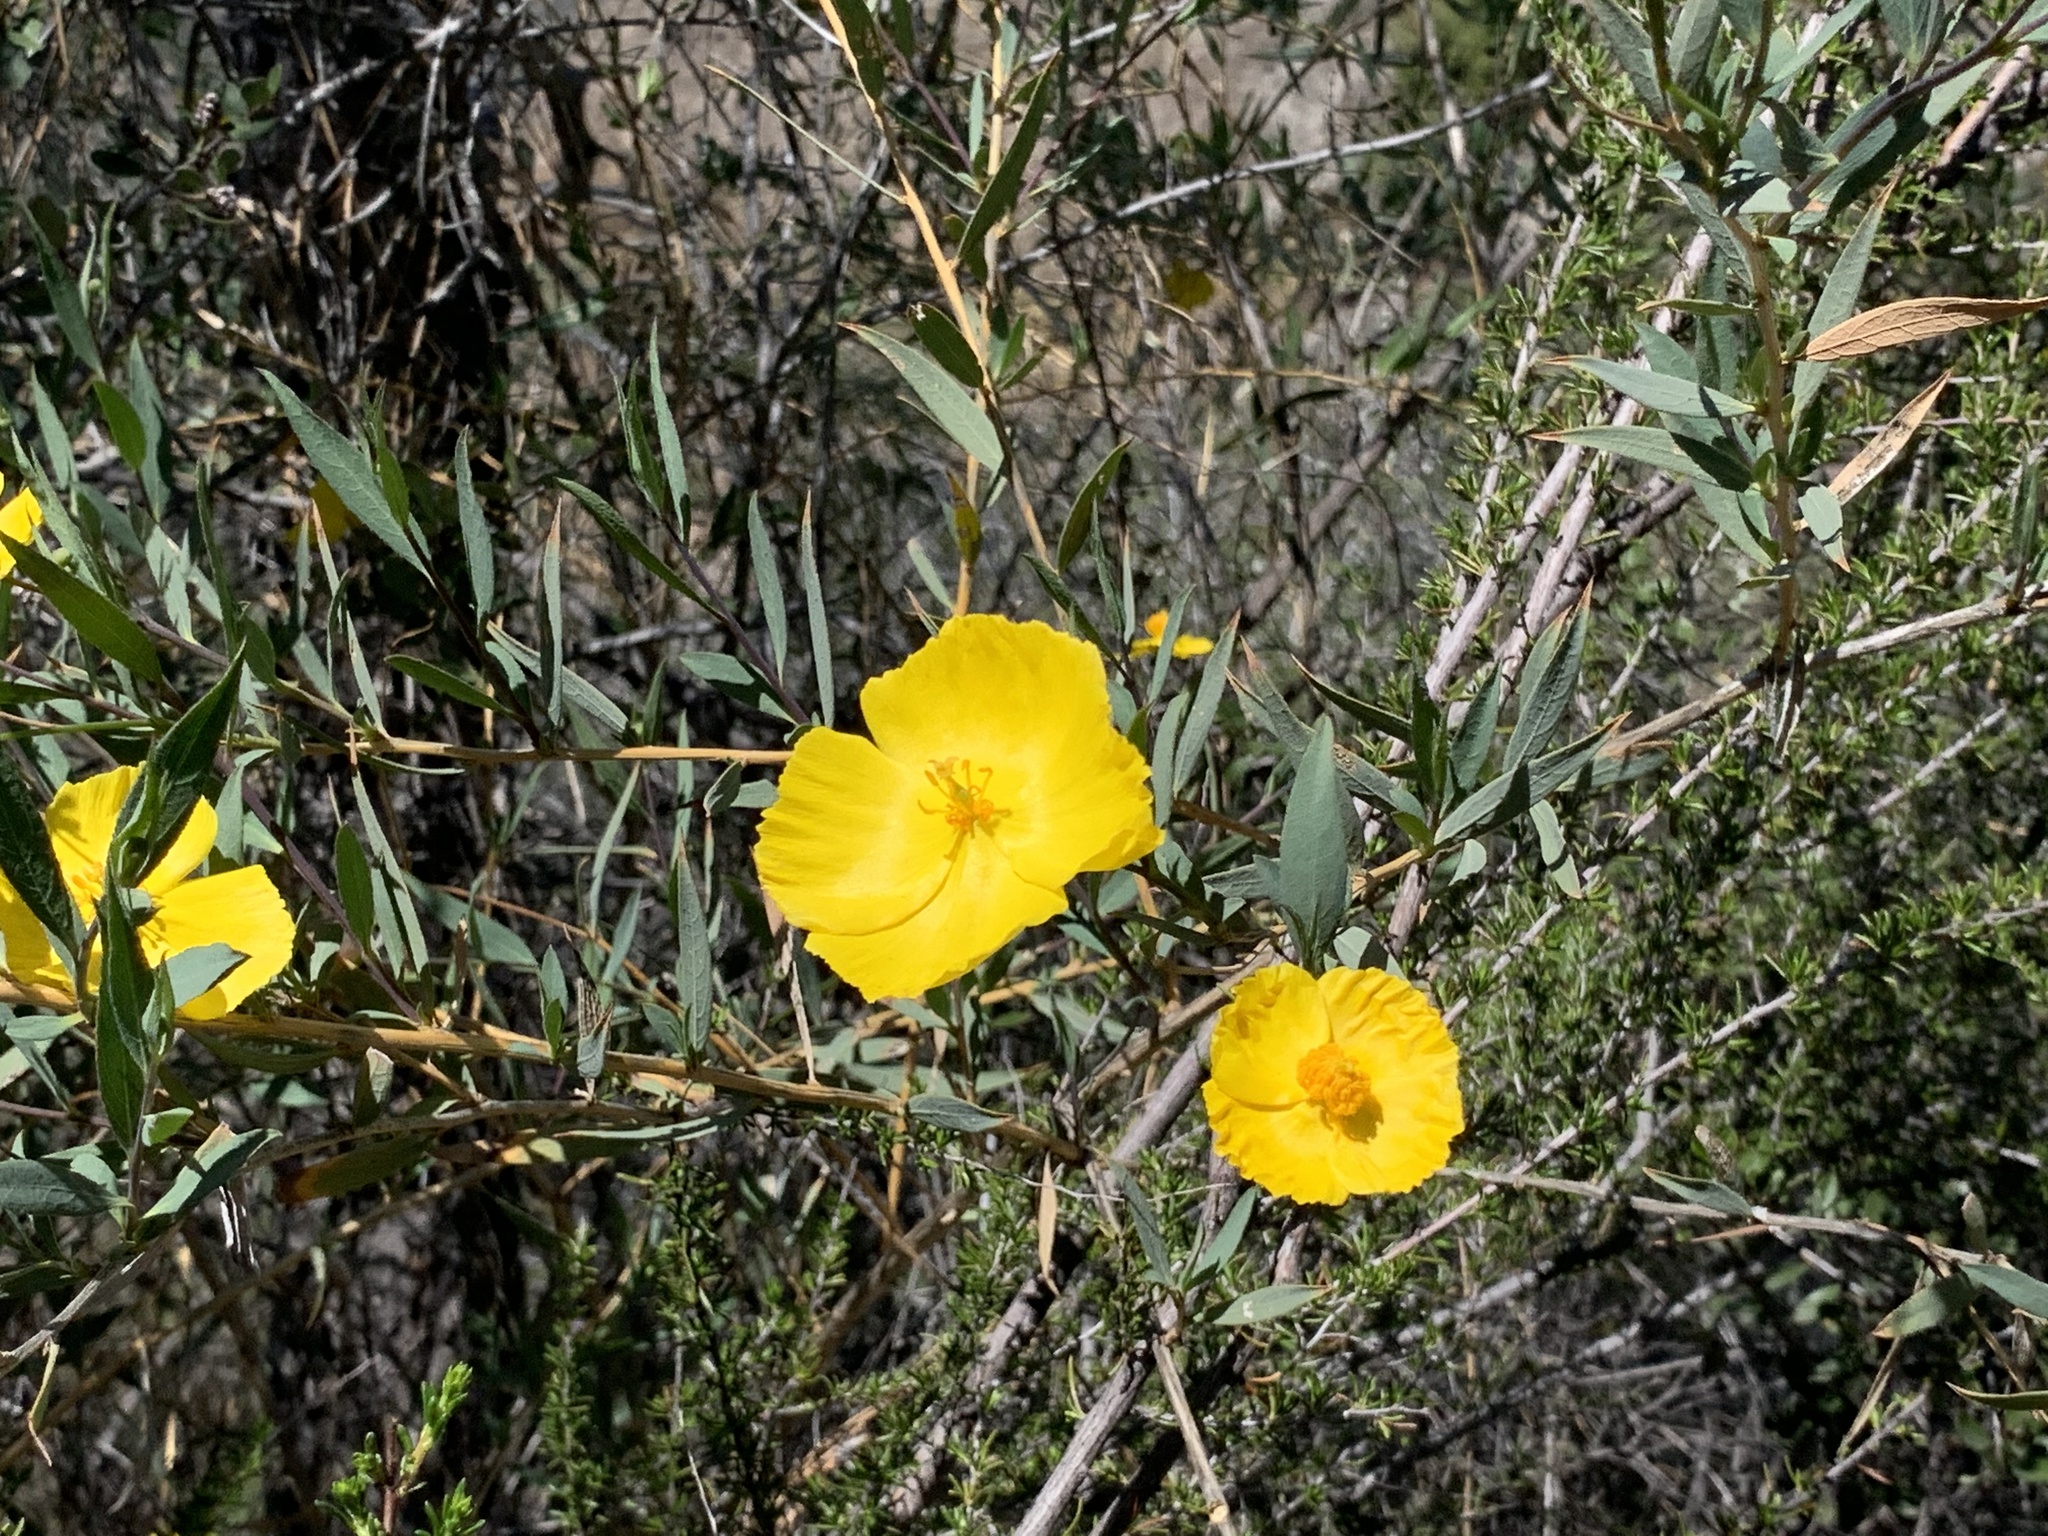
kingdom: Plantae
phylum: Tracheophyta
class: Magnoliopsida
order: Ranunculales
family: Papaveraceae
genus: Dendromecon
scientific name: Dendromecon rigida
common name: Tree poppy
